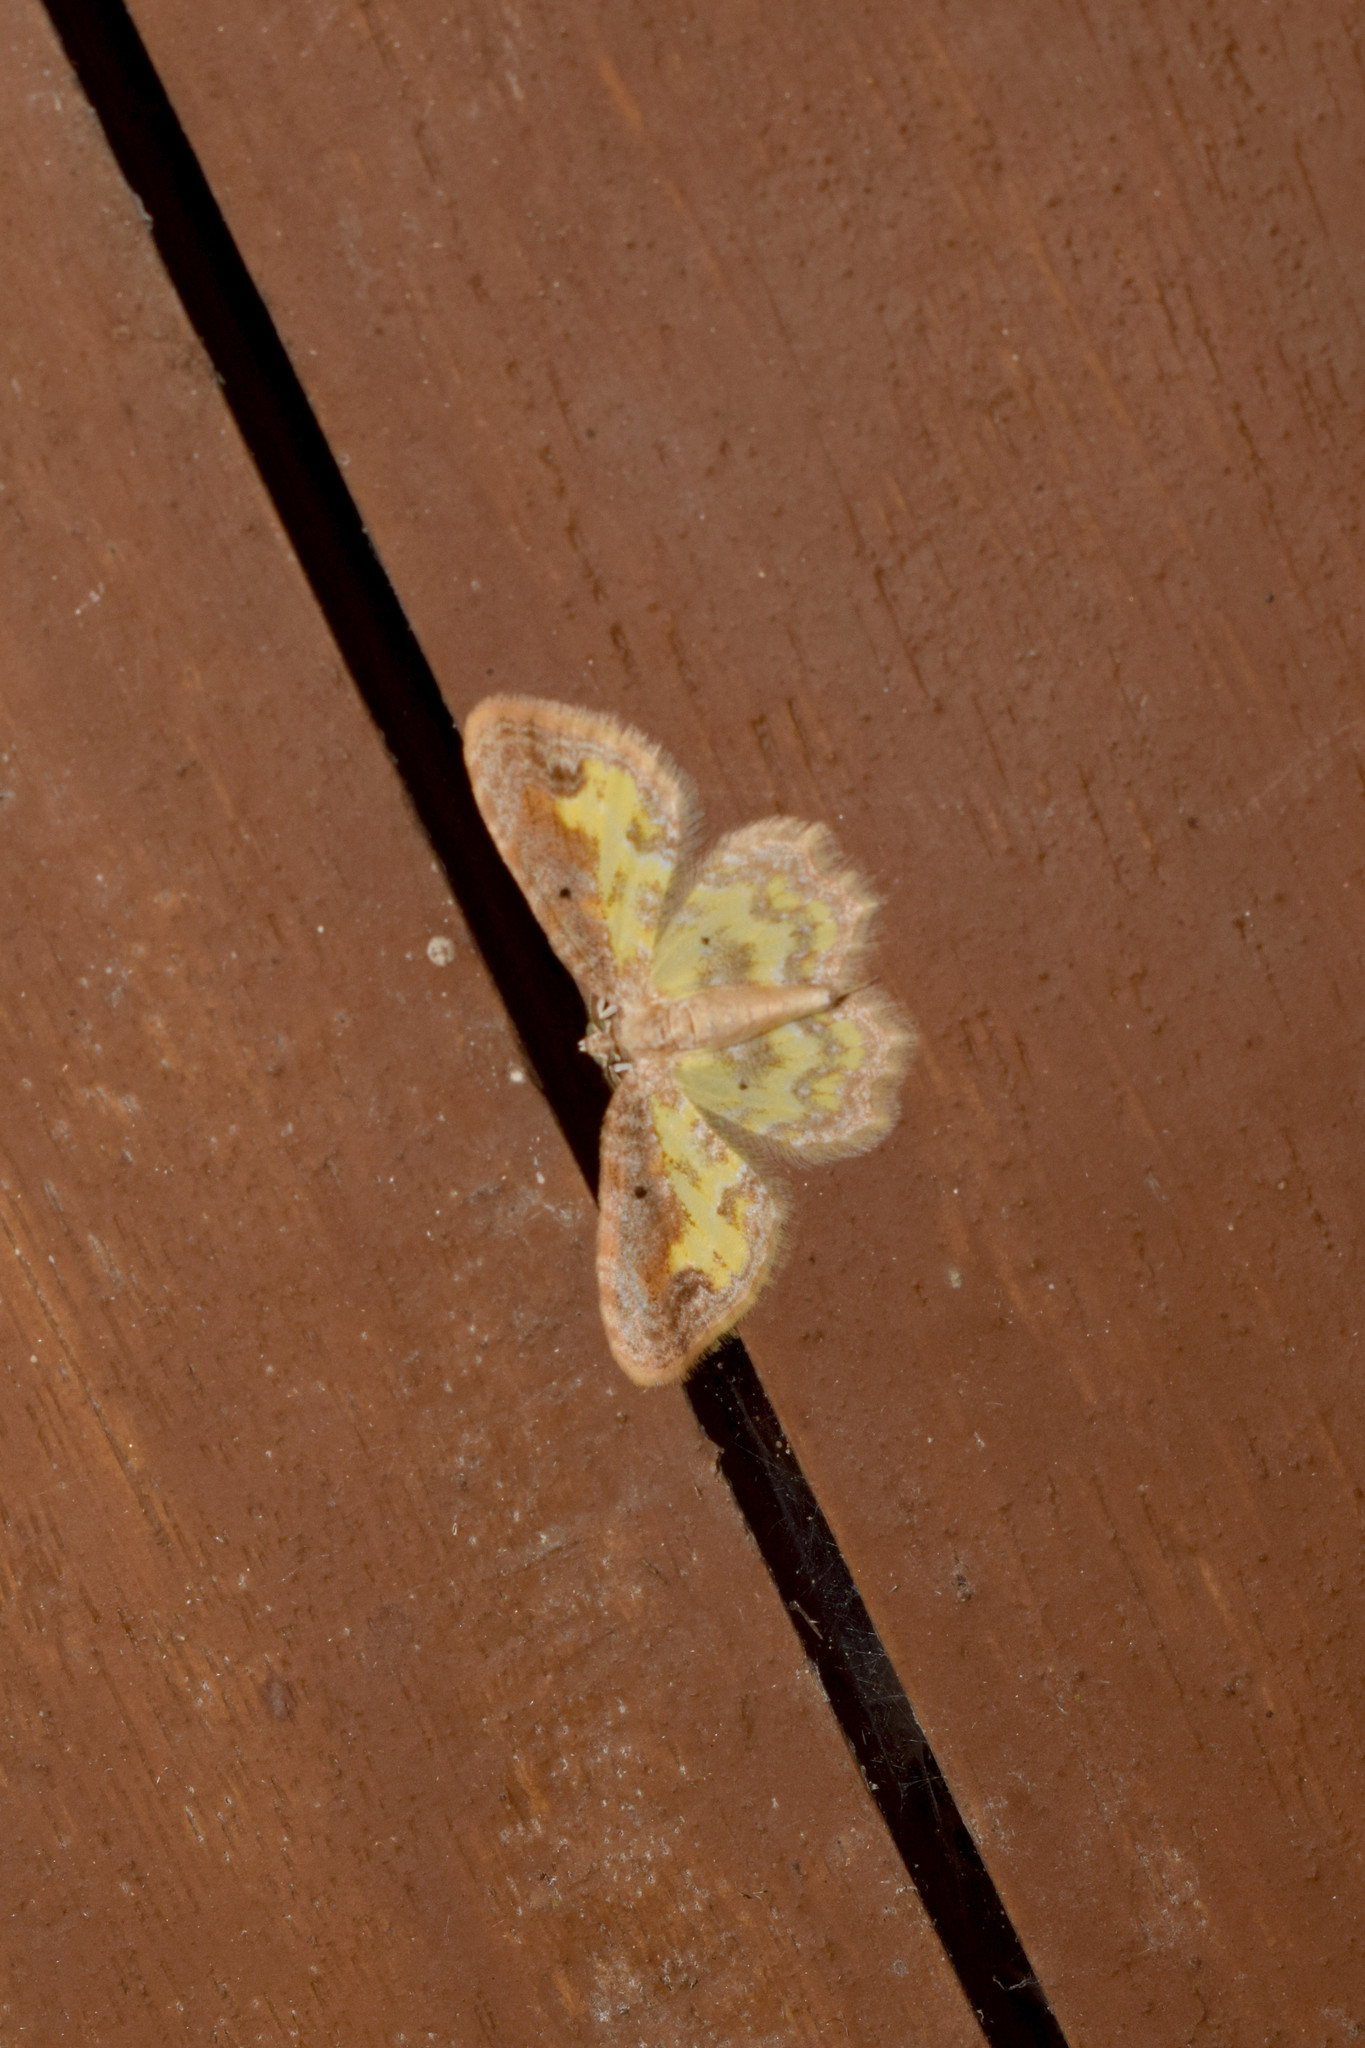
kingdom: Animalia
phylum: Arthropoda
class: Insecta
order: Lepidoptera
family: Geometridae
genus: Acolutha
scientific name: Acolutha pictaria
